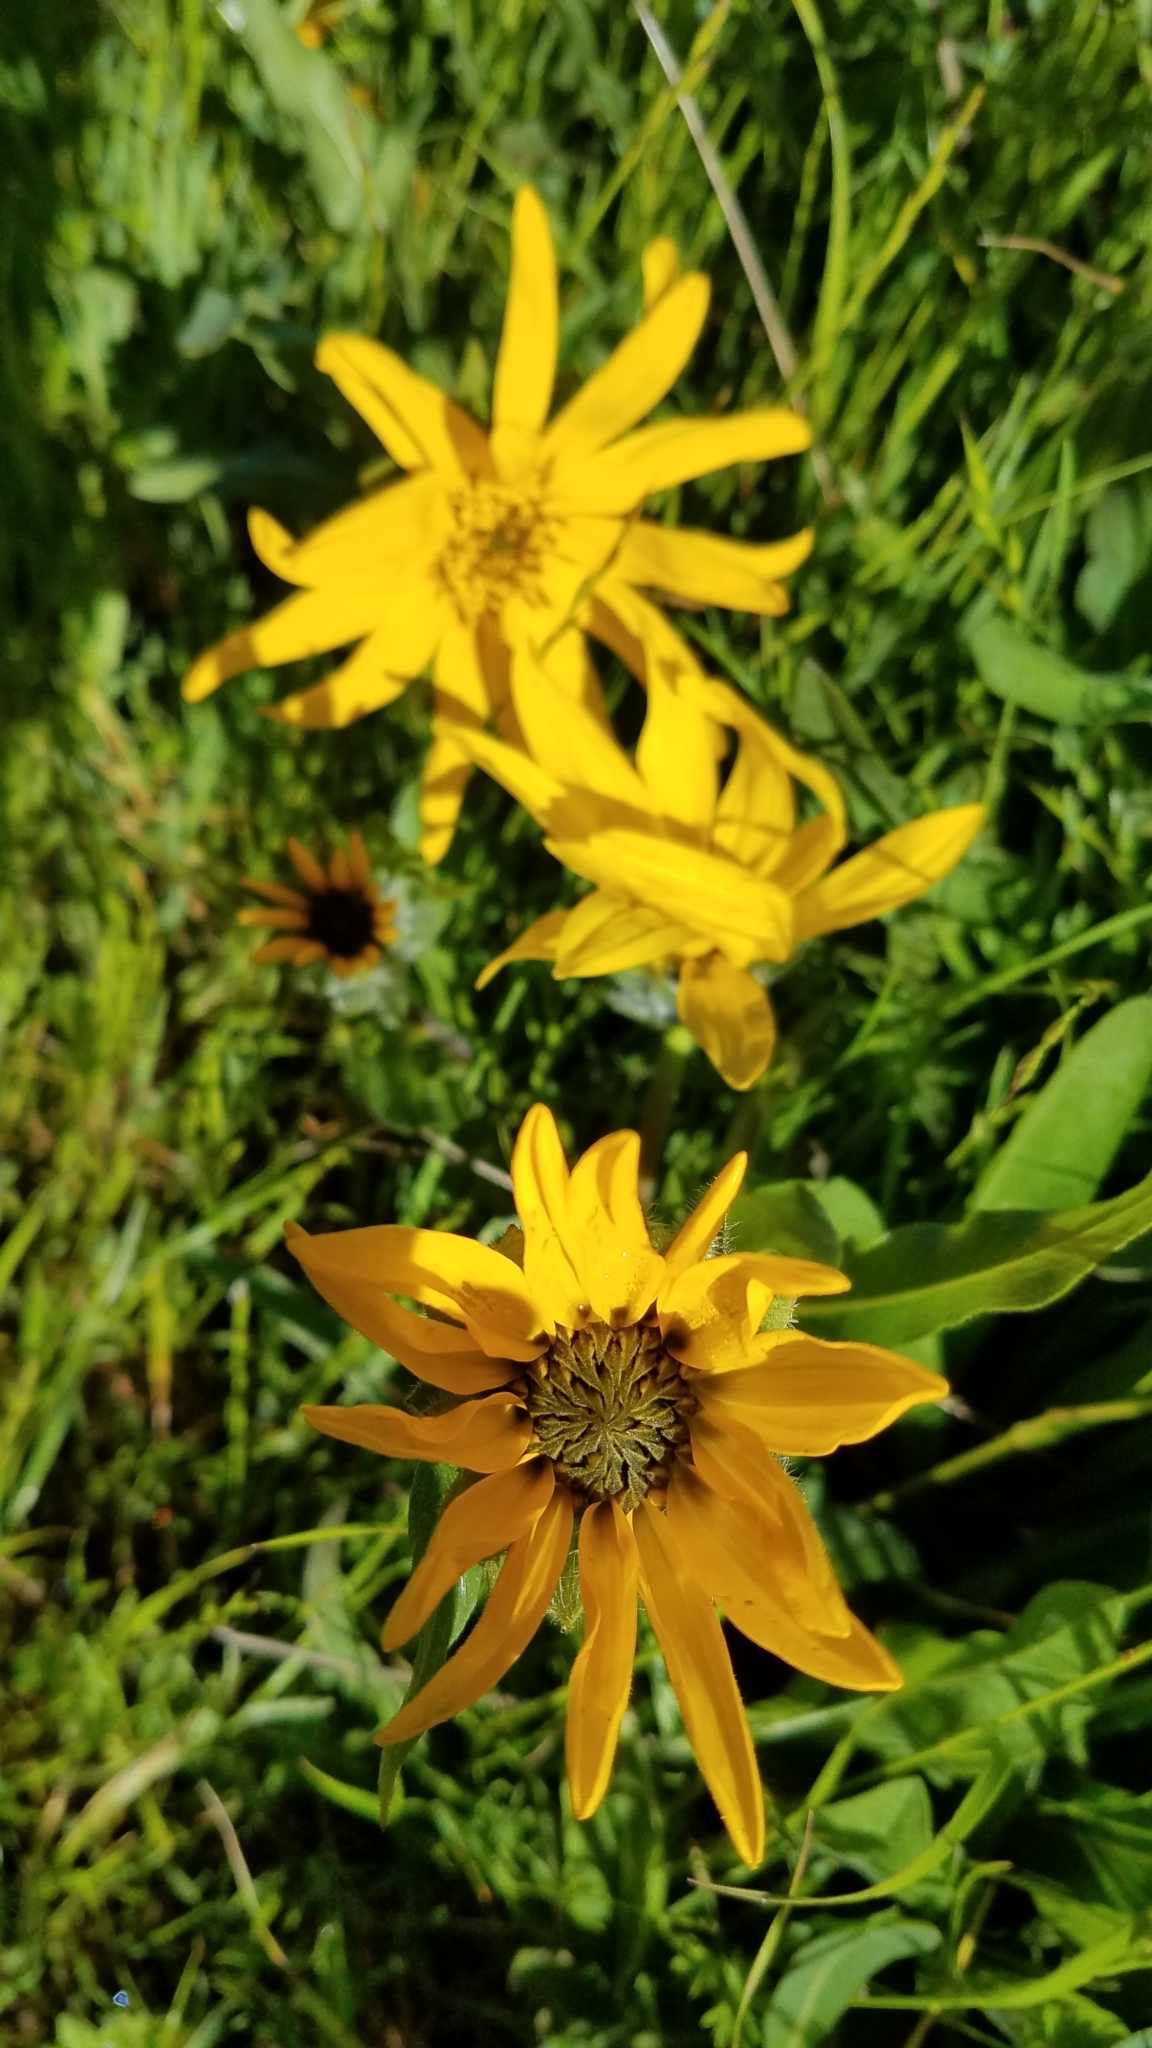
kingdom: Plantae
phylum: Tracheophyta
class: Magnoliopsida
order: Asterales
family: Asteraceae
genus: Wyethia
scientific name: Wyethia angustifolia
